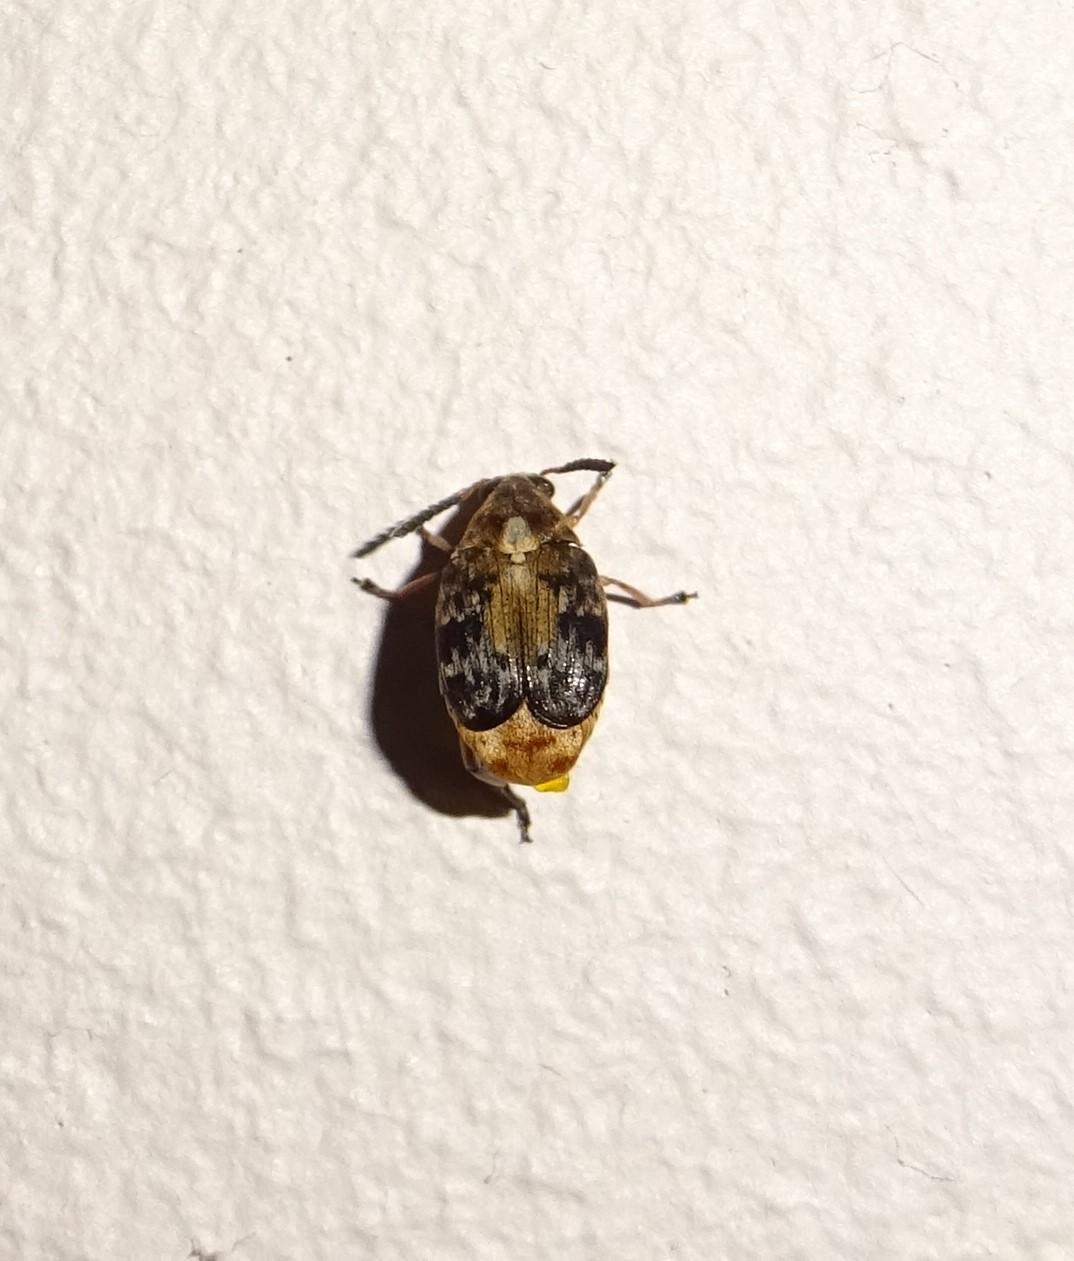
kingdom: Animalia
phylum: Arthropoda
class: Insecta
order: Coleoptera
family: Chrysomelidae
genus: Megabruchidius
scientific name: Megabruchidius dorsalis
